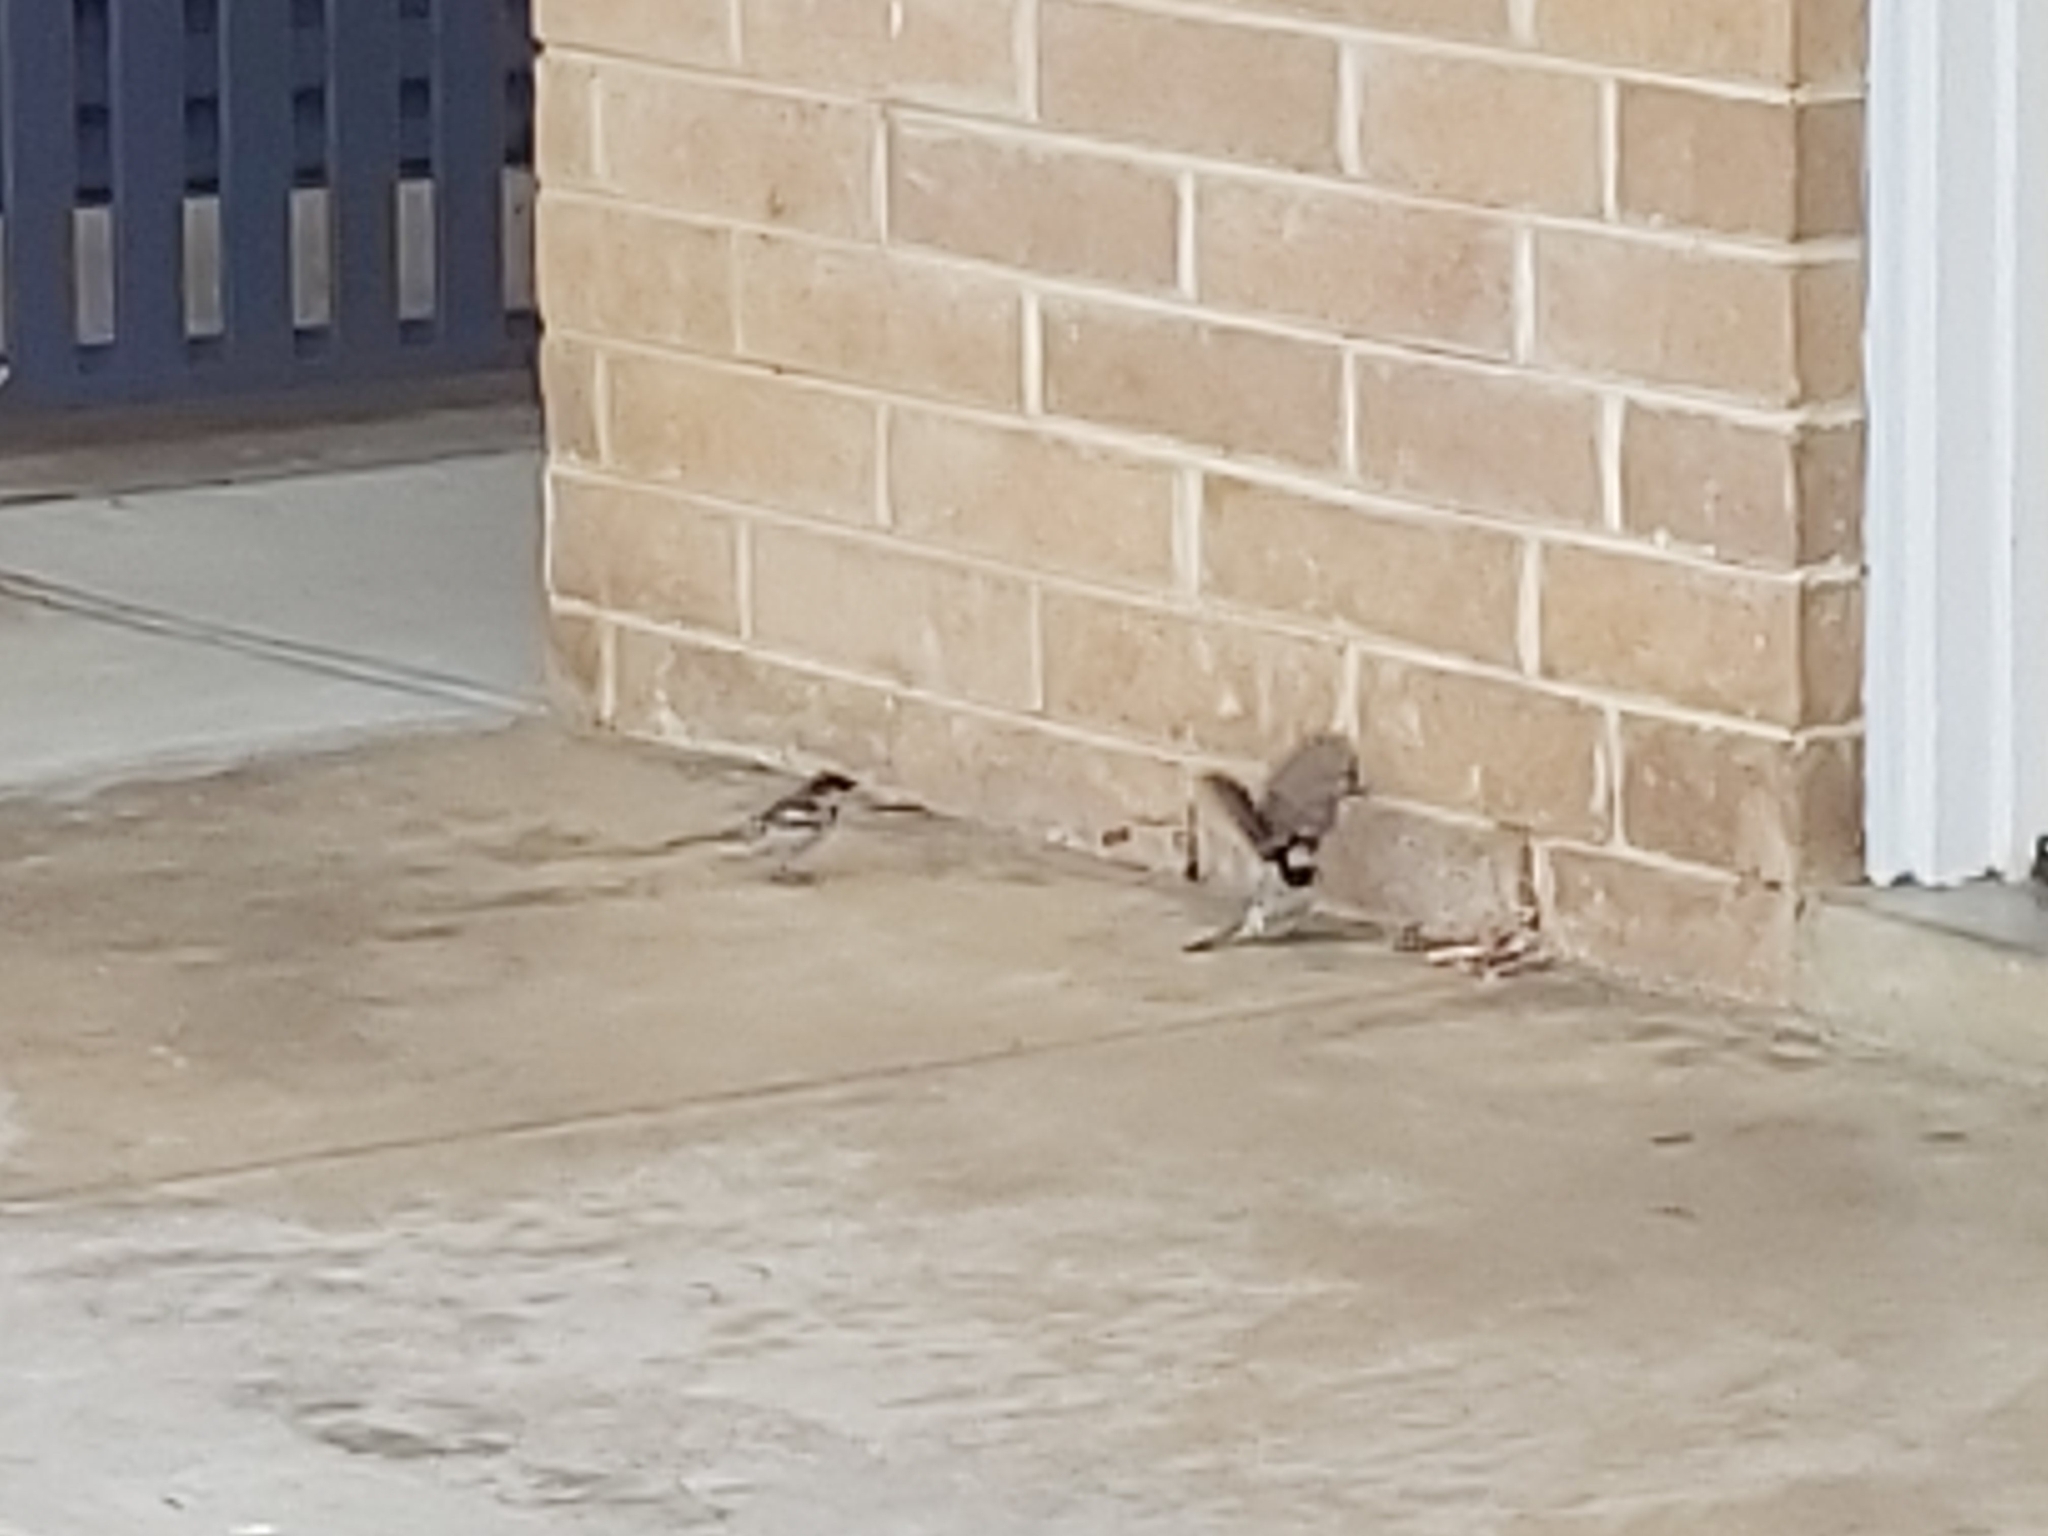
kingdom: Animalia
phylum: Chordata
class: Aves
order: Passeriformes
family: Passeridae
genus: Passer
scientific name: Passer domesticus
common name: House sparrow
